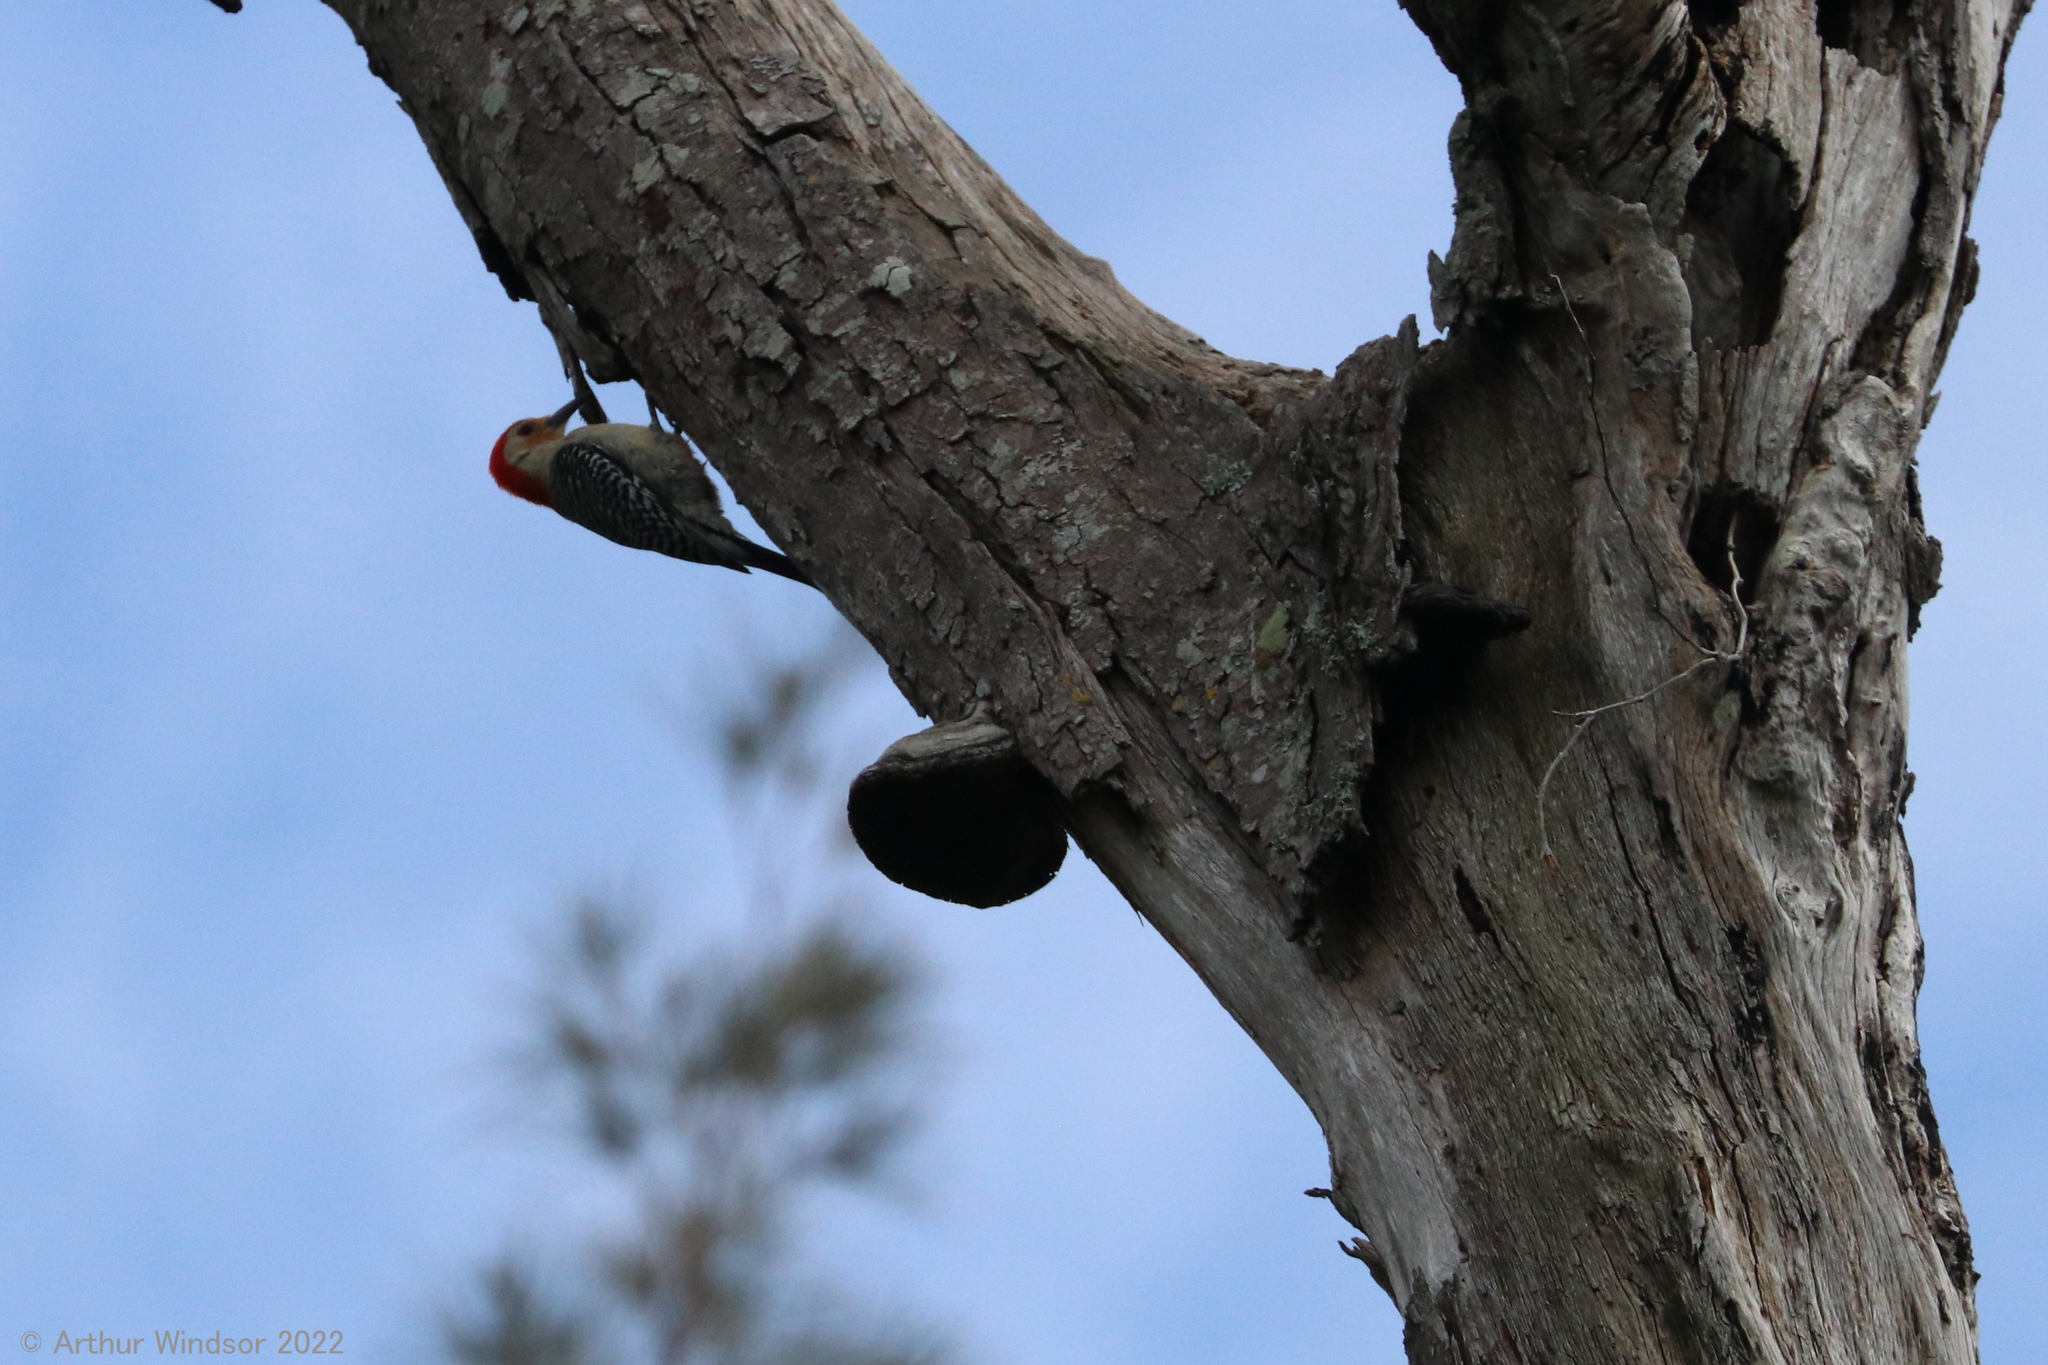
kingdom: Animalia
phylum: Chordata
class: Aves
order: Piciformes
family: Picidae
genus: Melanerpes
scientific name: Melanerpes carolinus
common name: Red-bellied woodpecker
